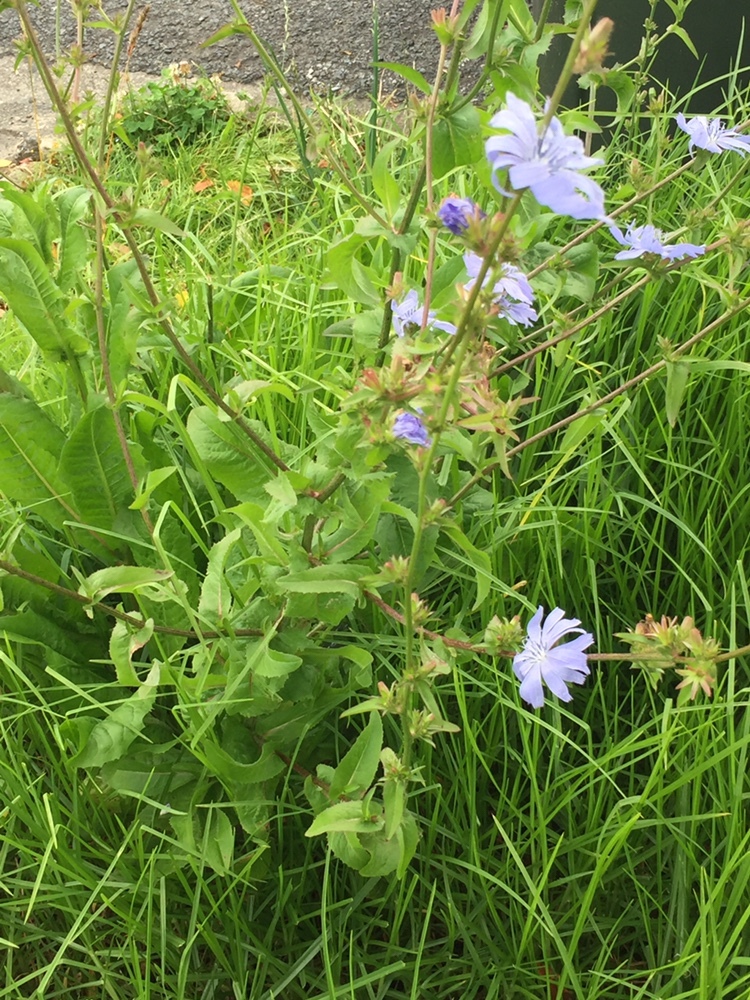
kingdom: Plantae
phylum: Tracheophyta
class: Magnoliopsida
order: Asterales
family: Asteraceae
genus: Cichorium
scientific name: Cichorium intybus
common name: Chicory
